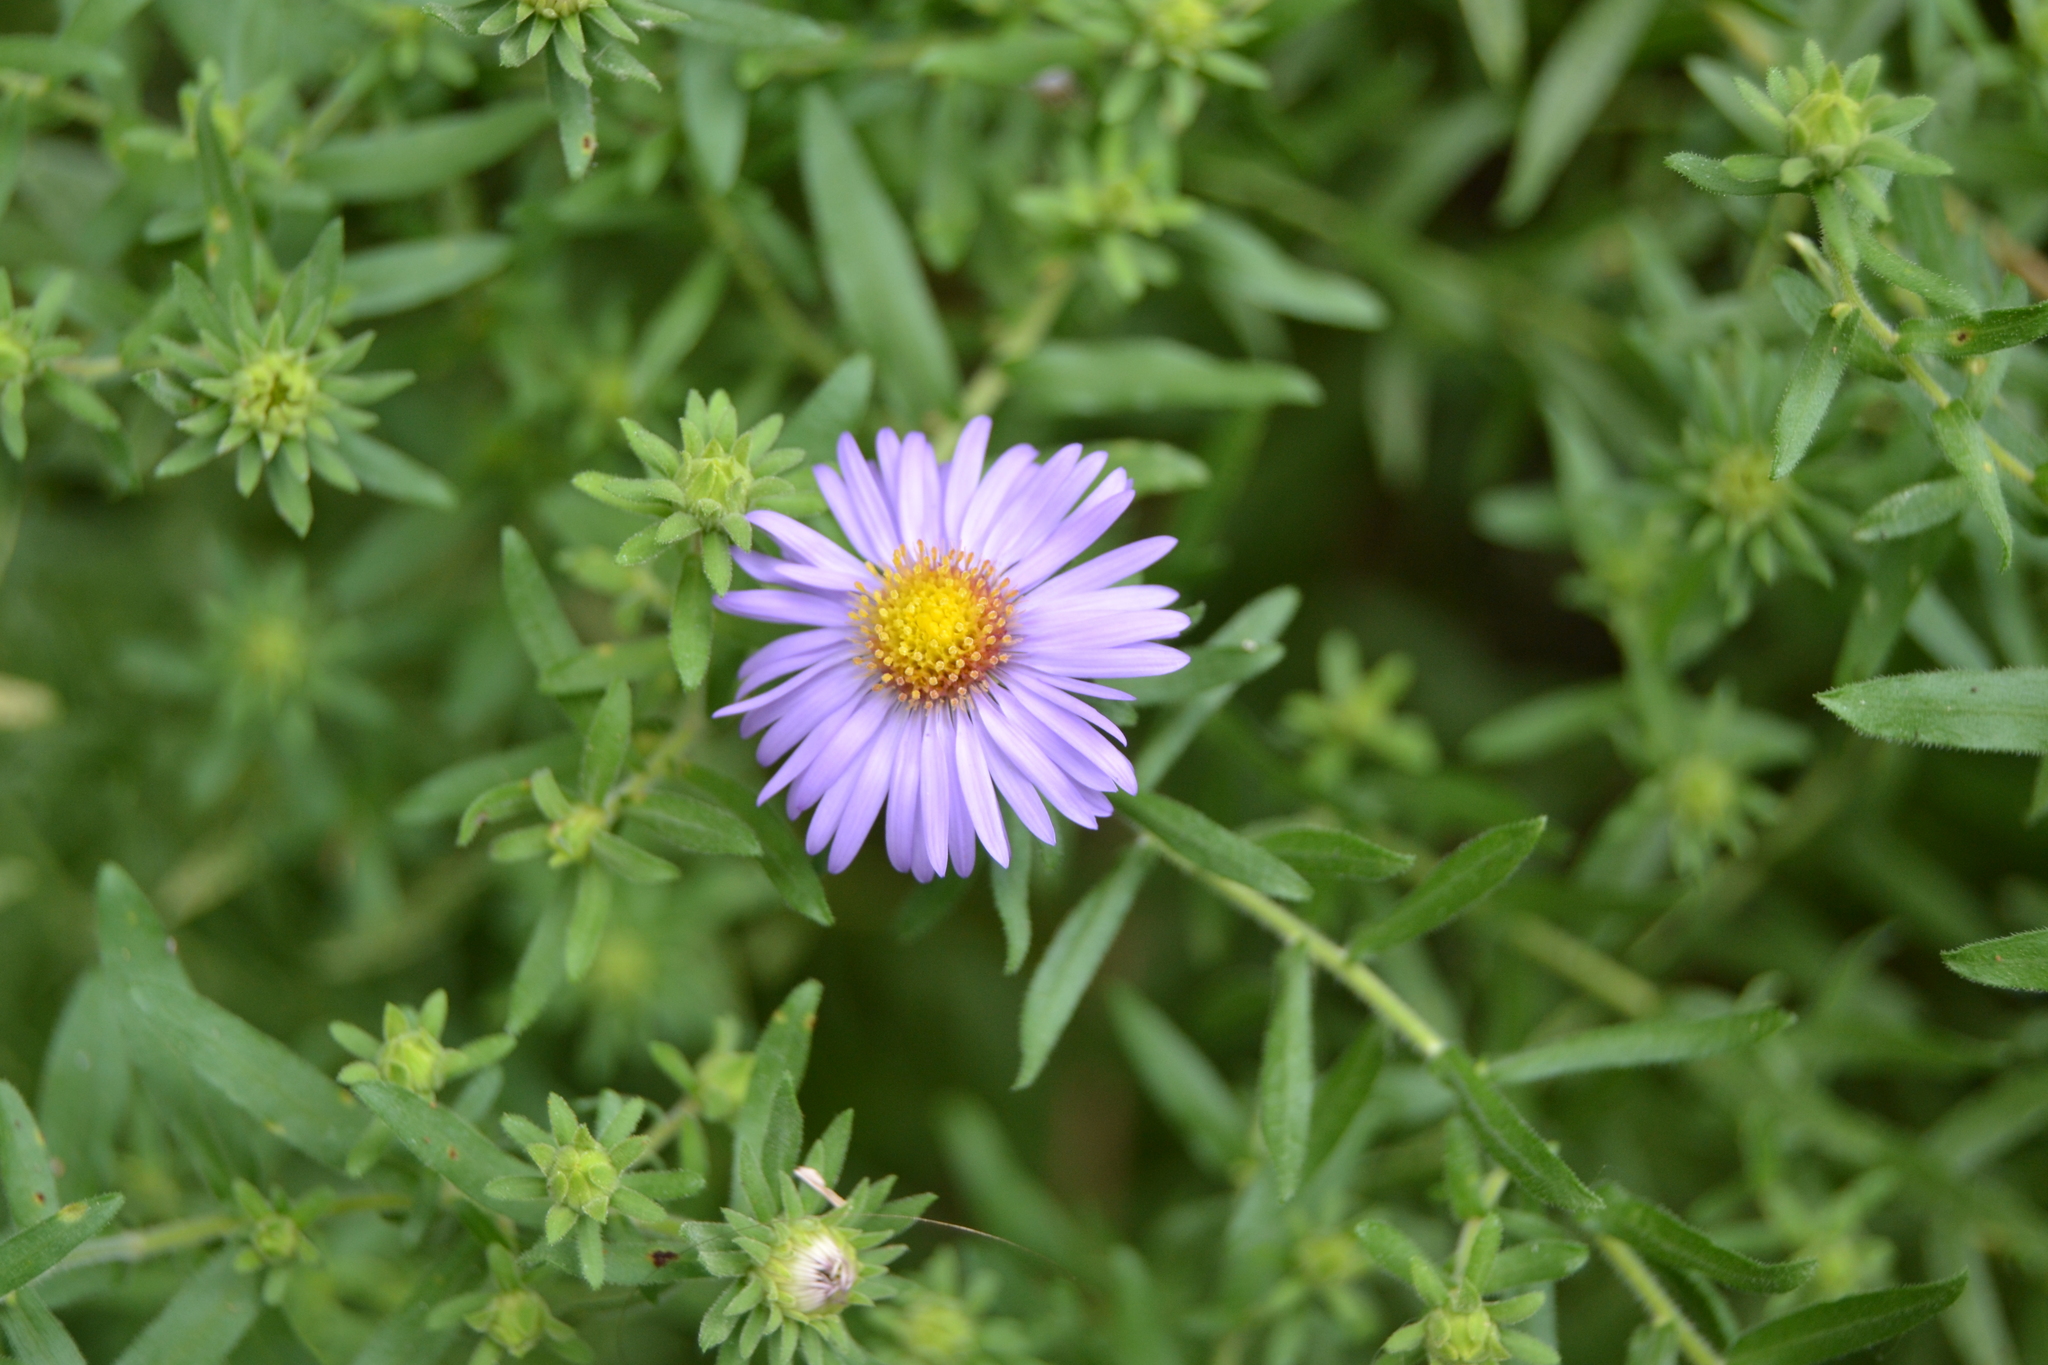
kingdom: Plantae
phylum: Tracheophyta
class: Magnoliopsida
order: Asterales
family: Asteraceae
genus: Symphyotrichum
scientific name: Symphyotrichum oblongifolium
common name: Aromatic aster
